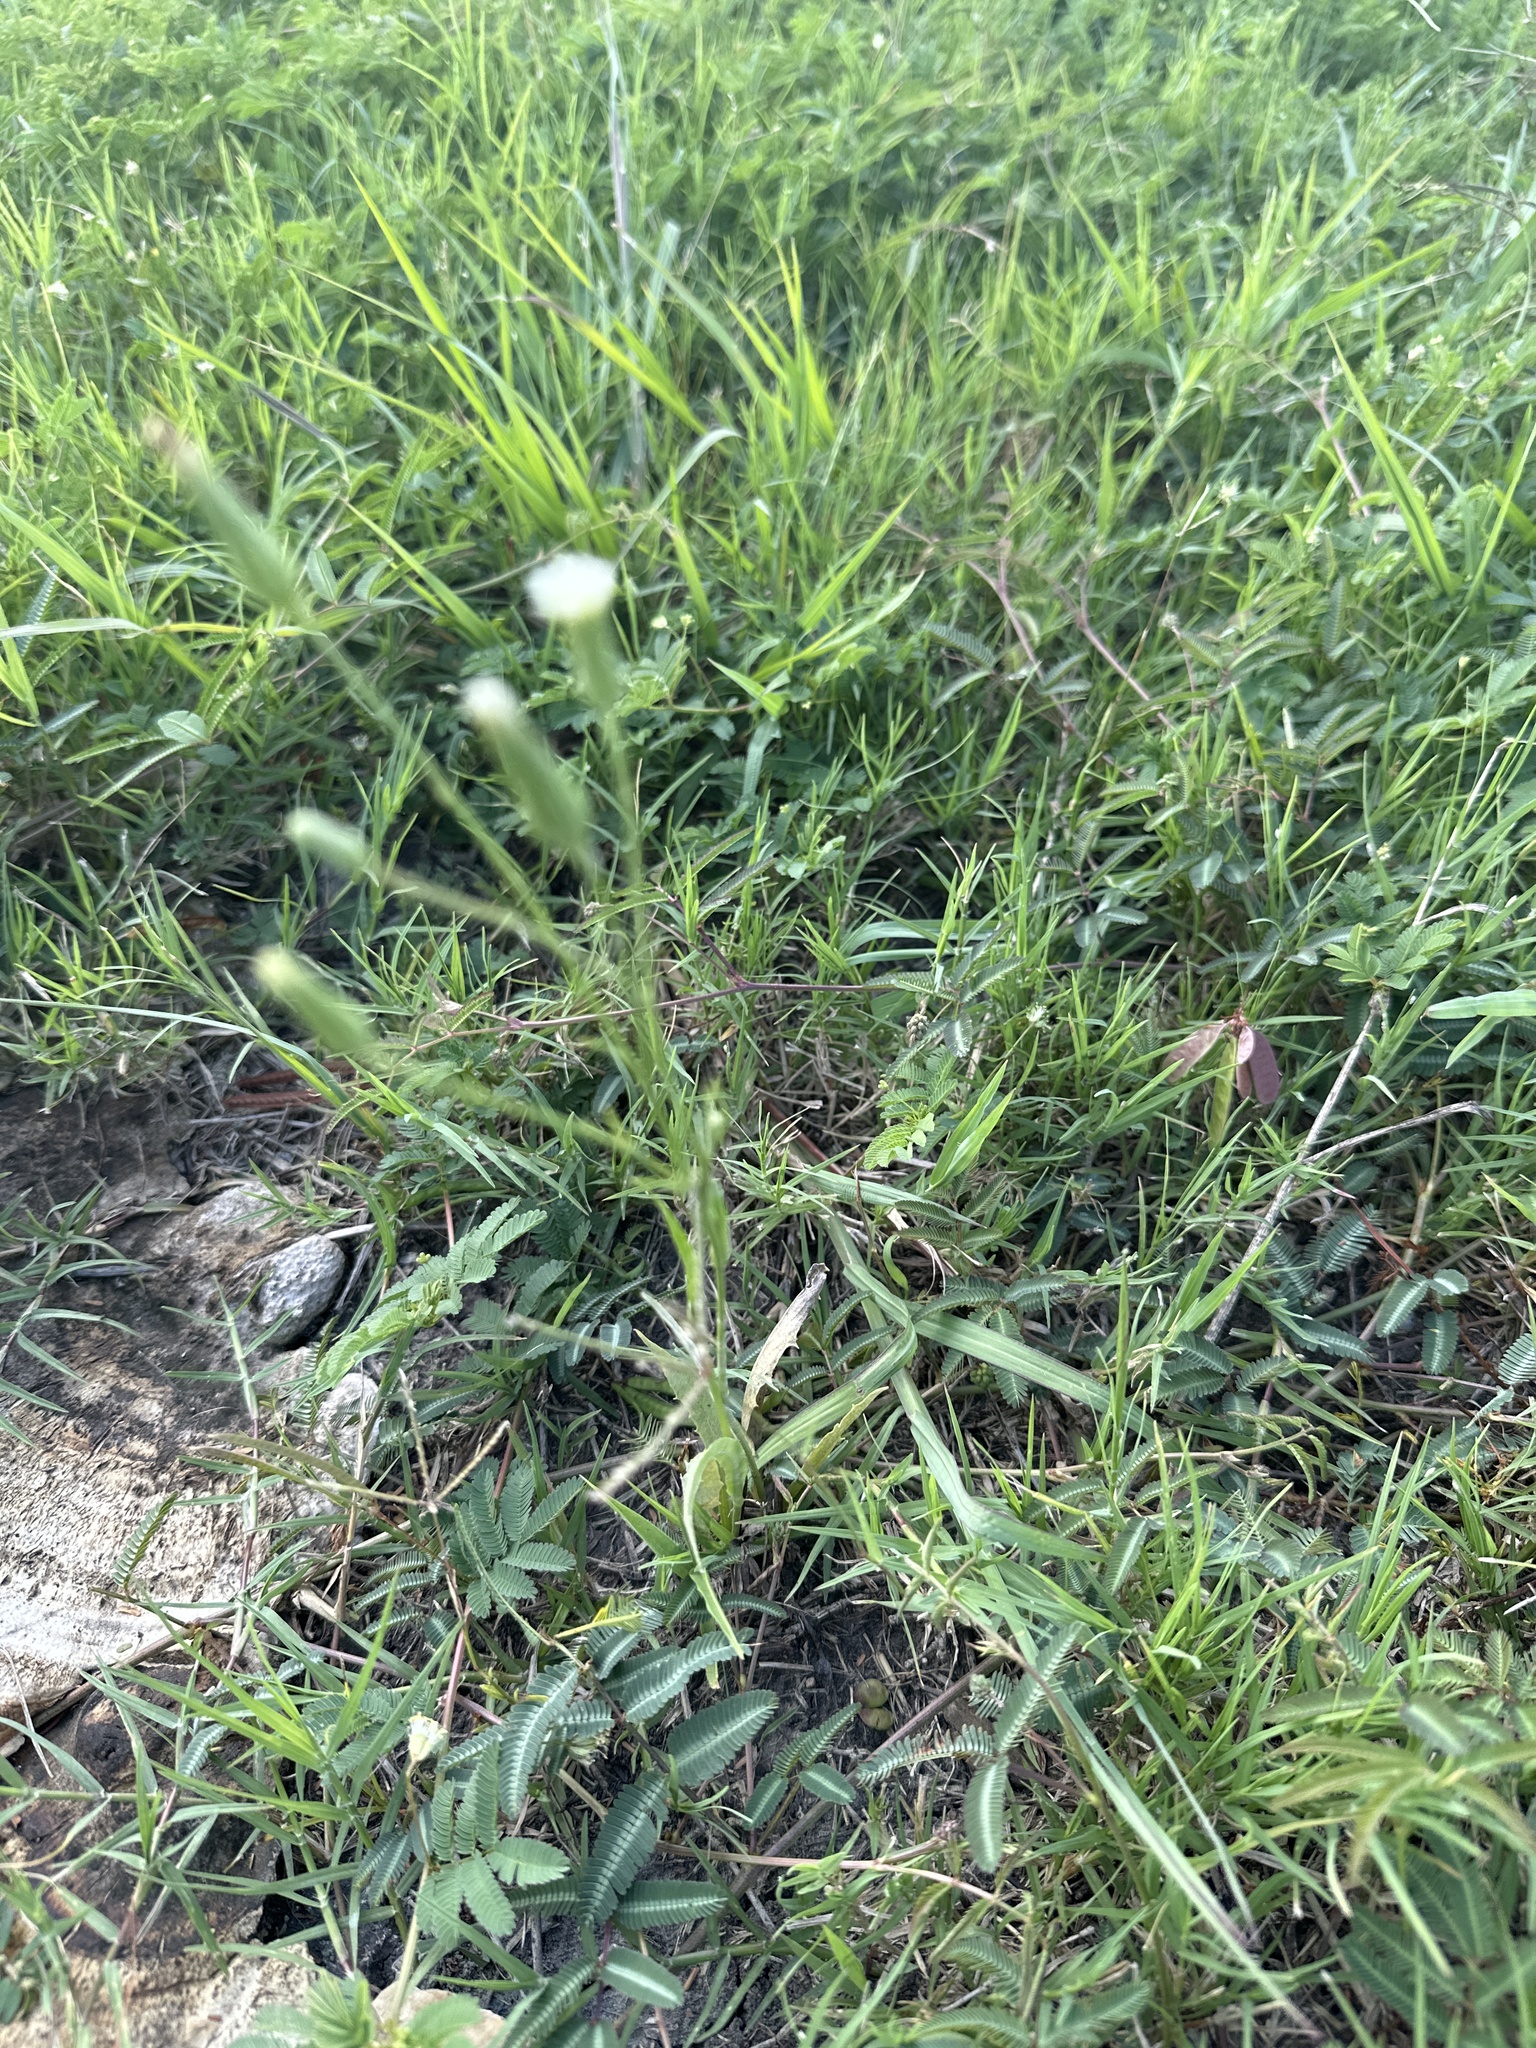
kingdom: Plantae
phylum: Tracheophyta
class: Magnoliopsida
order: Asterales
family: Asteraceae
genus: Hypochaeris
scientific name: Hypochaeris albiflora
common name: White flatweed
